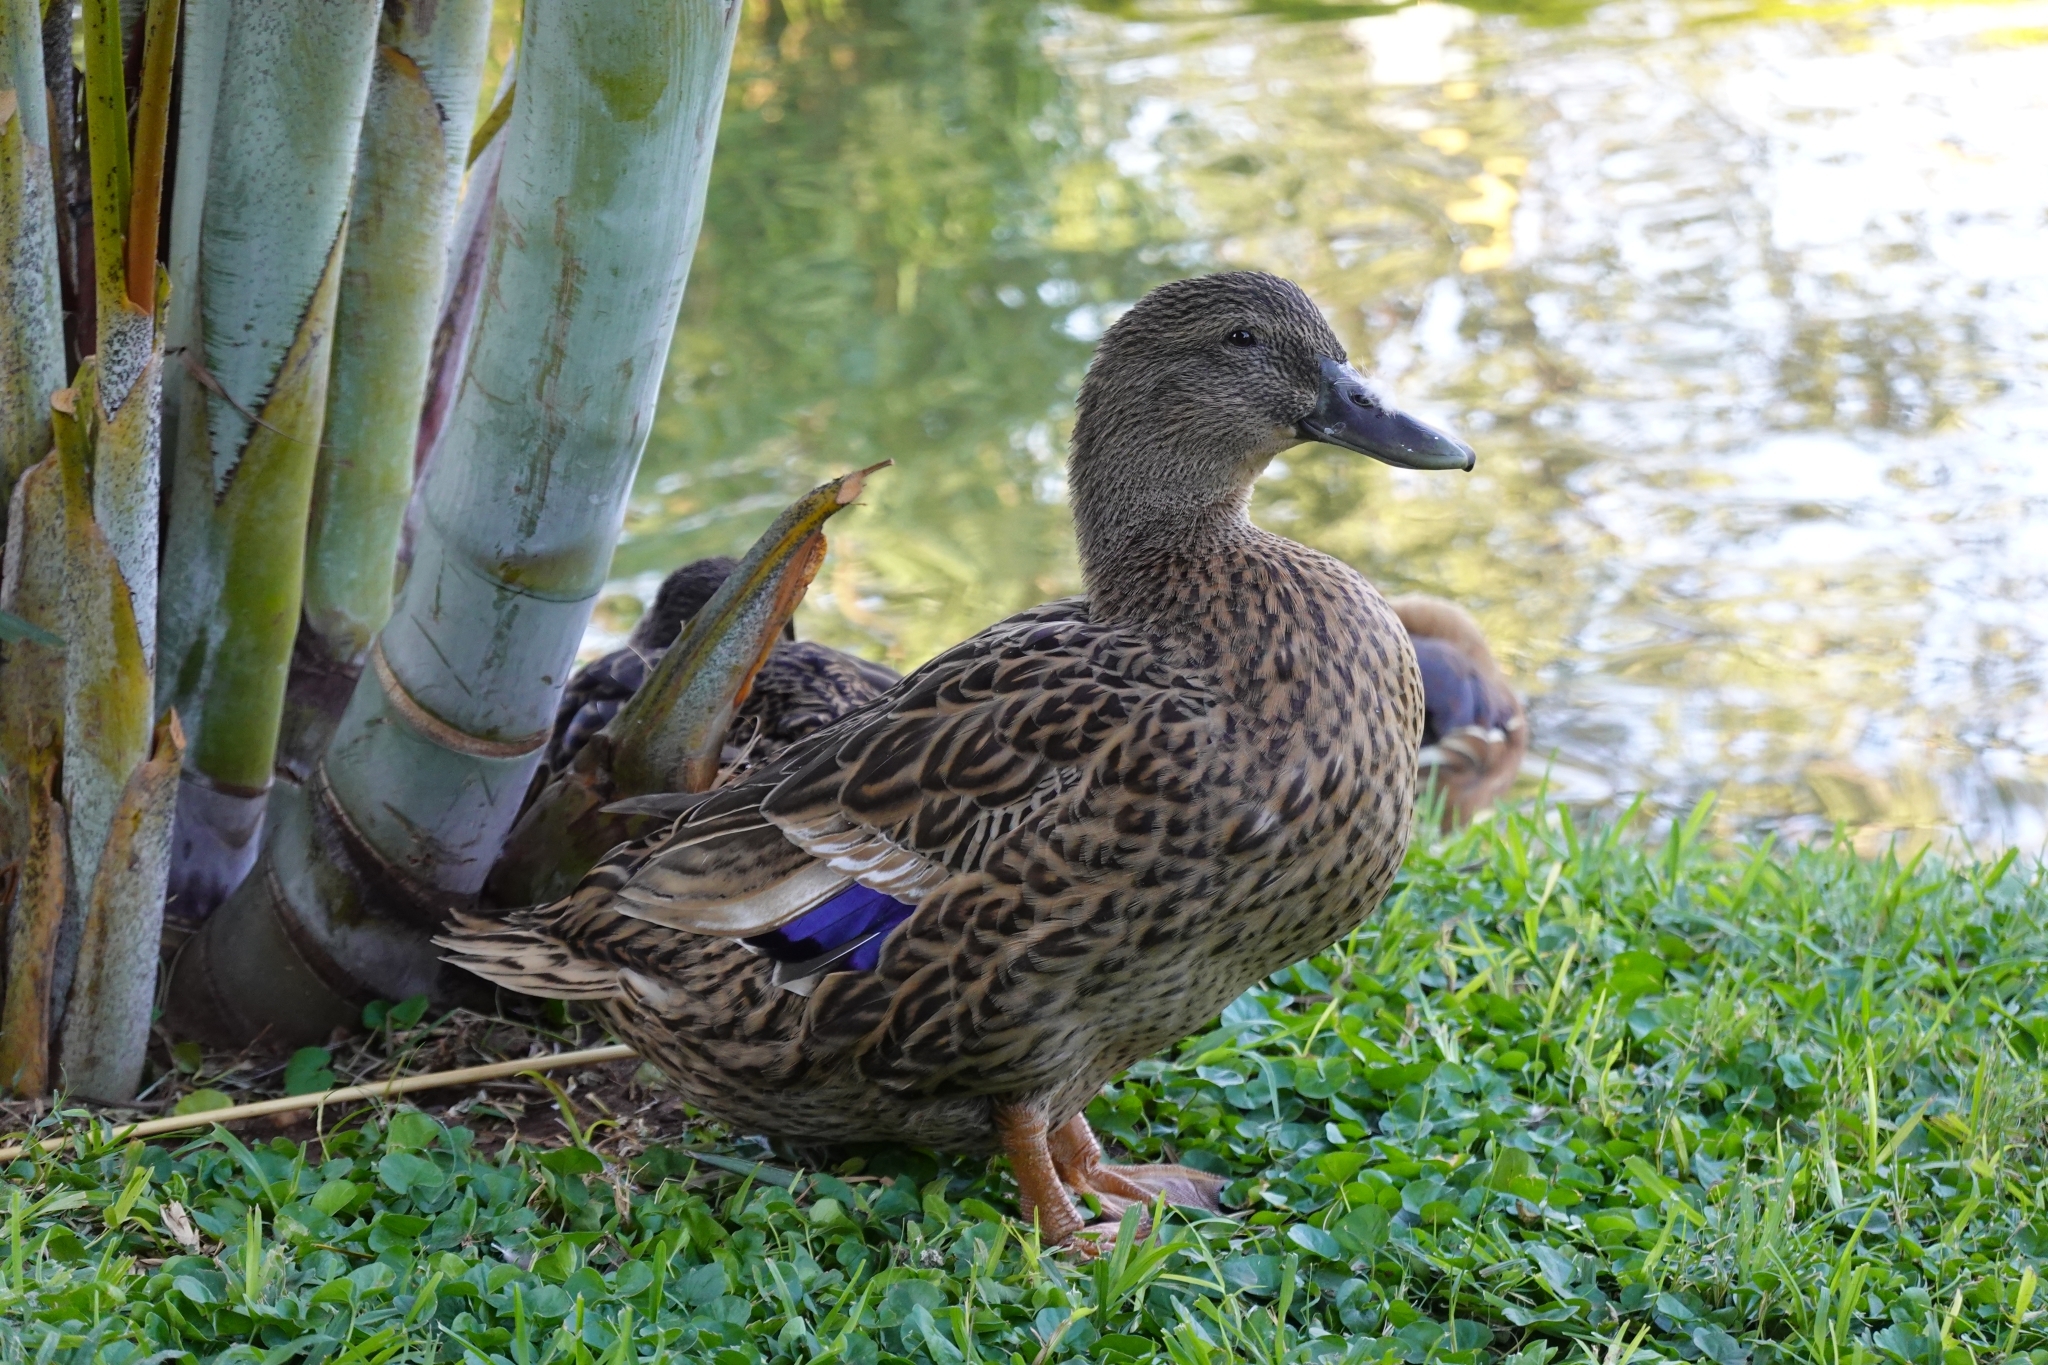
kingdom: Animalia
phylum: Chordata
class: Aves
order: Anseriformes
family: Anatidae
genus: Anas
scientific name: Anas platyrhynchos
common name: Mallard
